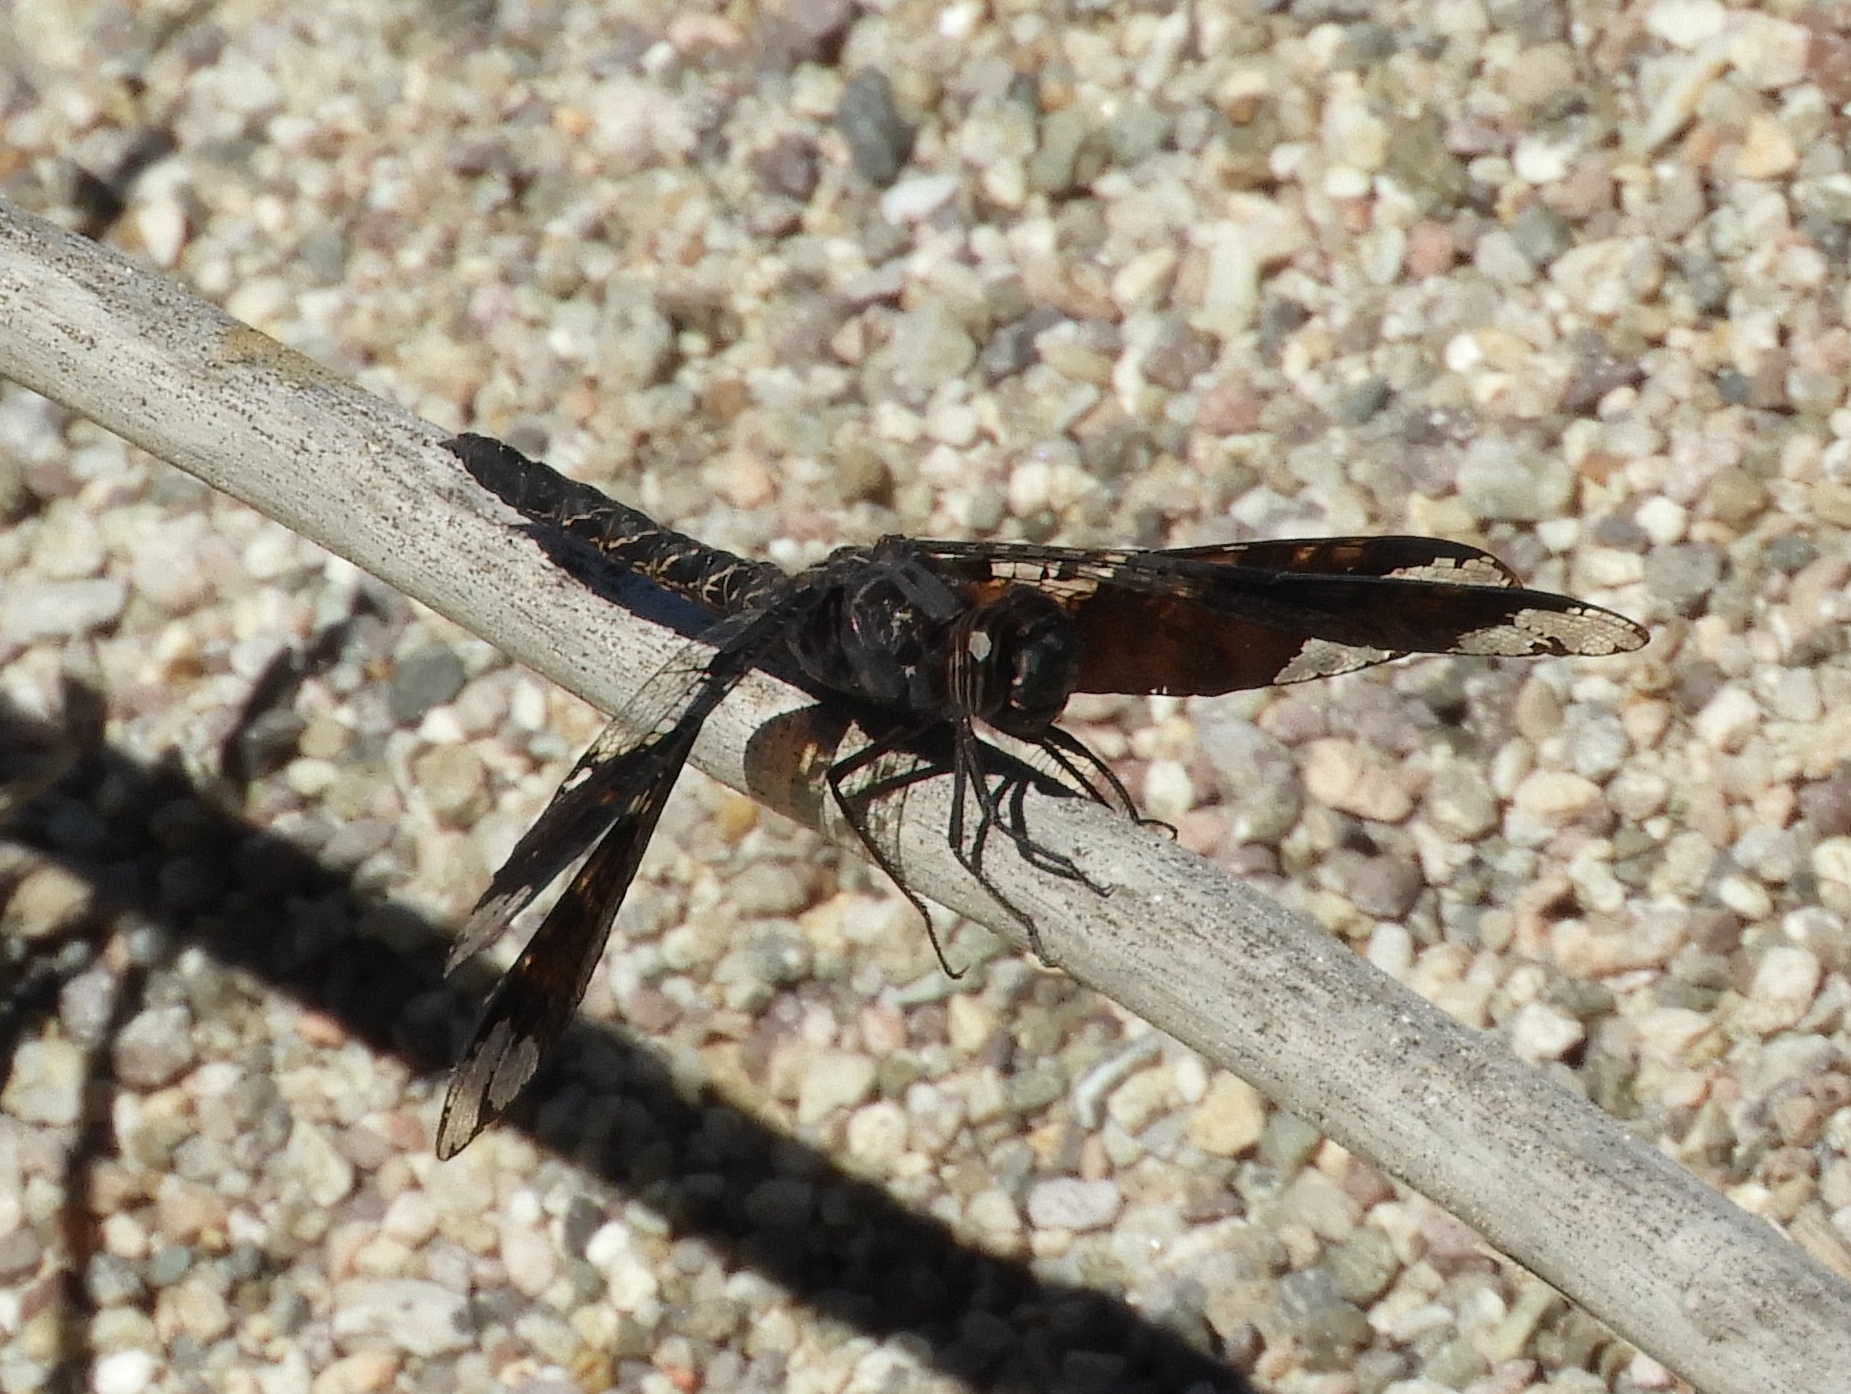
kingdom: Animalia
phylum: Arthropoda
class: Insecta
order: Odonata
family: Libellulidae
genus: Pseudoleon
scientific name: Pseudoleon superbus
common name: Filigree skimmer
